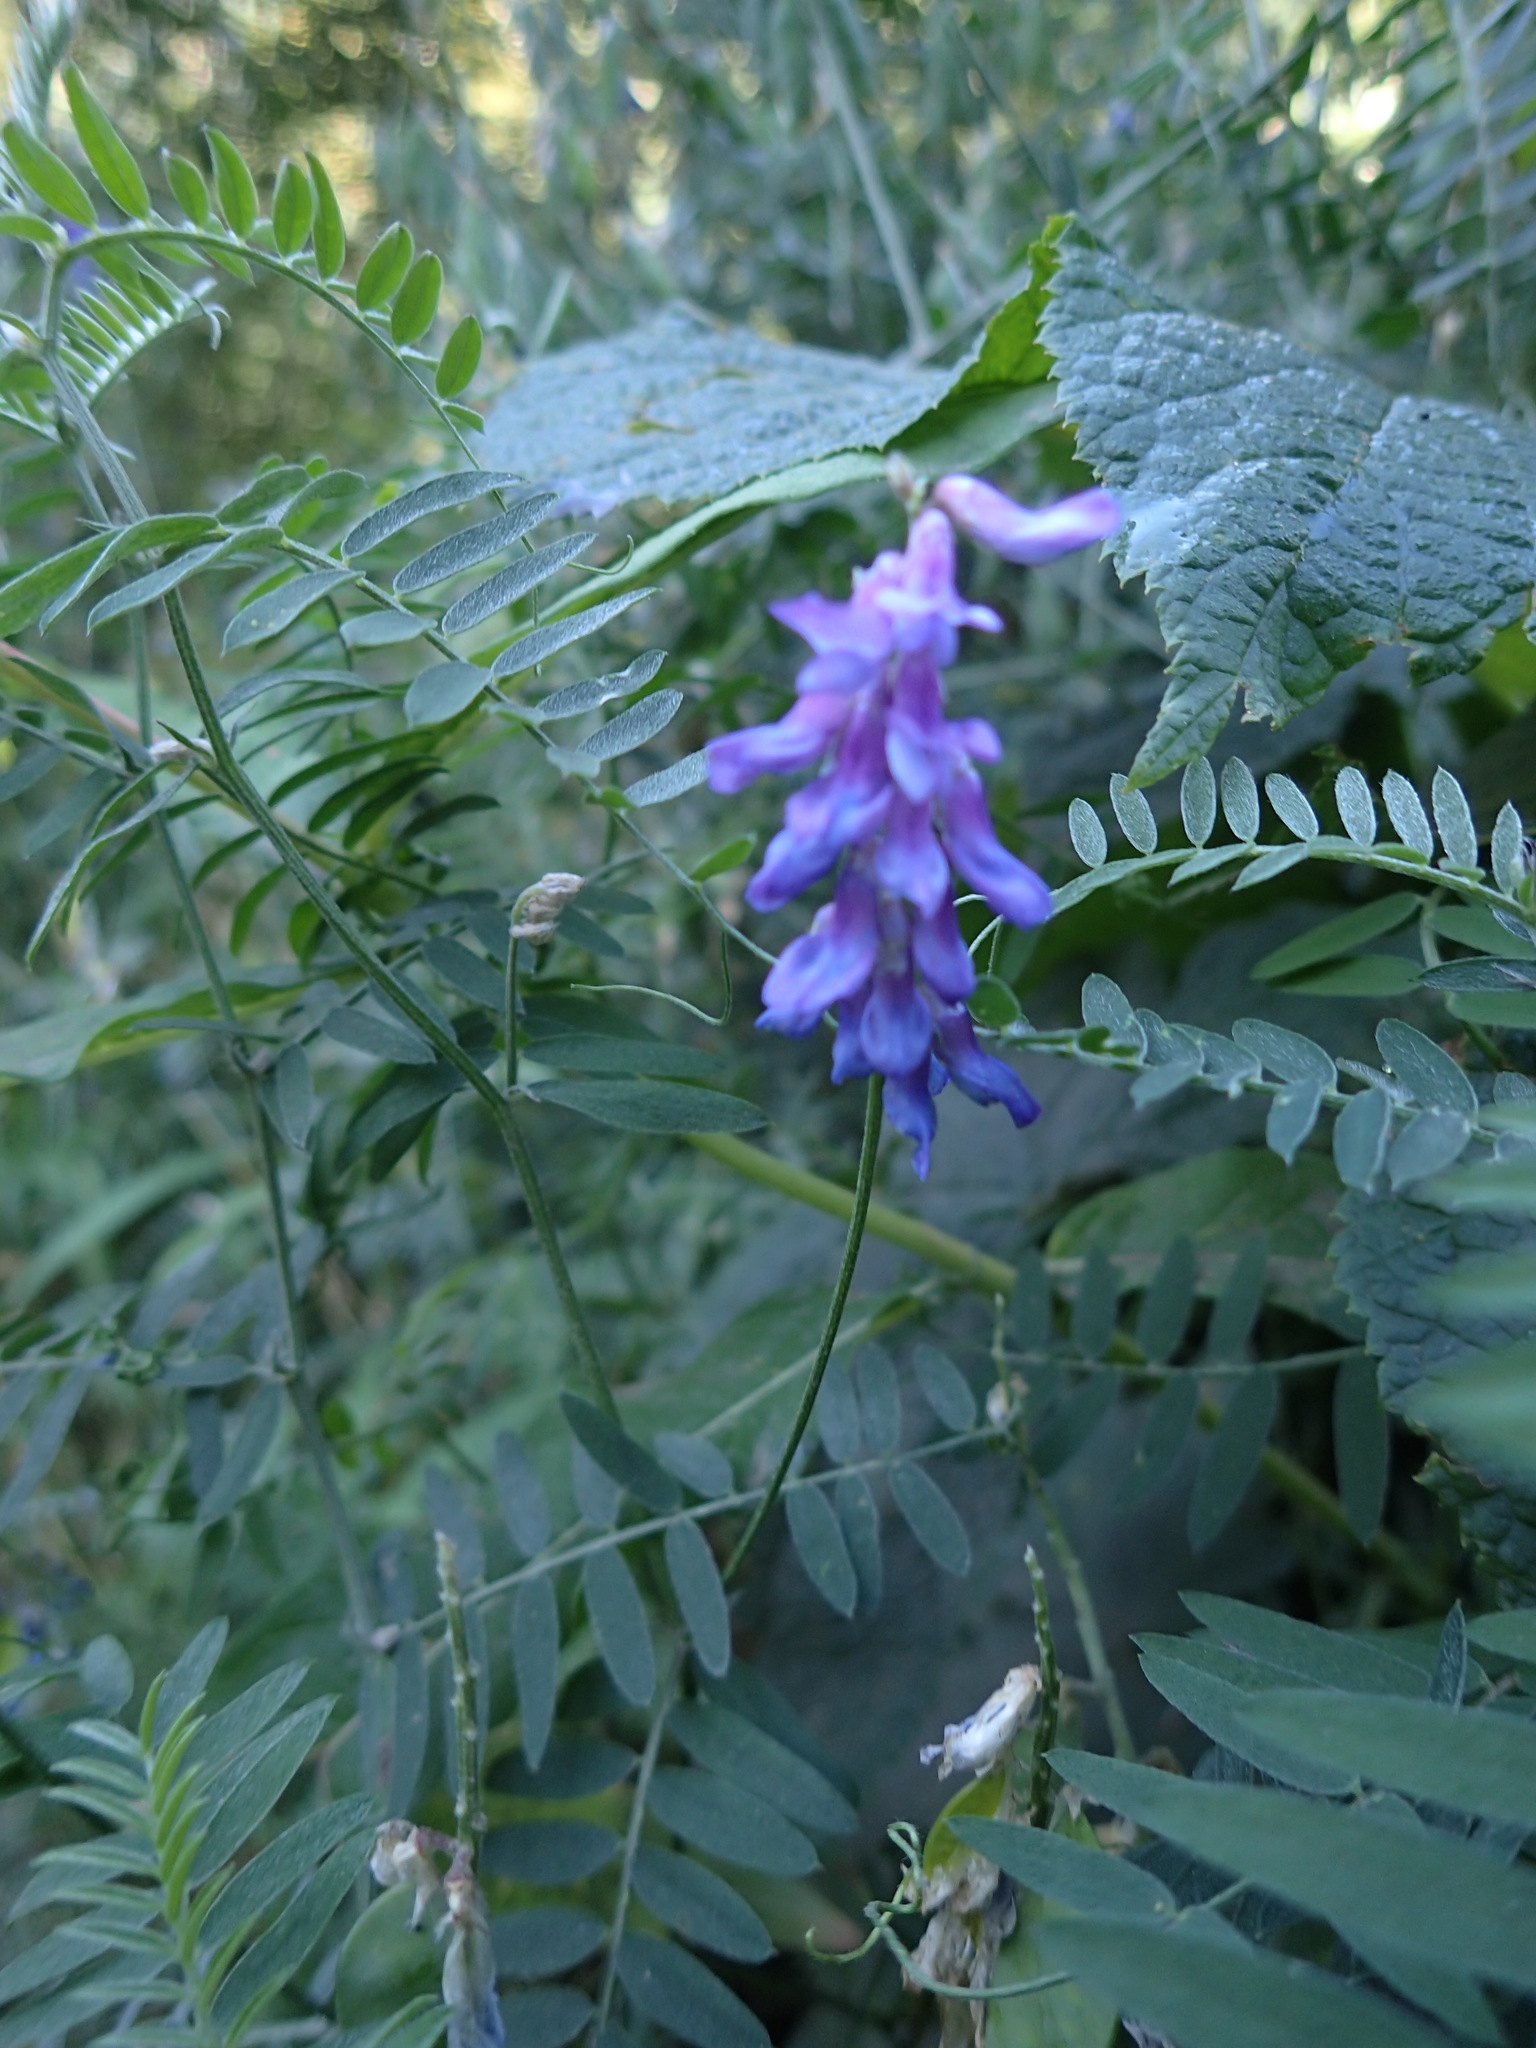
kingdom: Plantae
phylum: Tracheophyta
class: Magnoliopsida
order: Fabales
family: Fabaceae
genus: Vicia
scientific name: Vicia cracca
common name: Bird vetch
